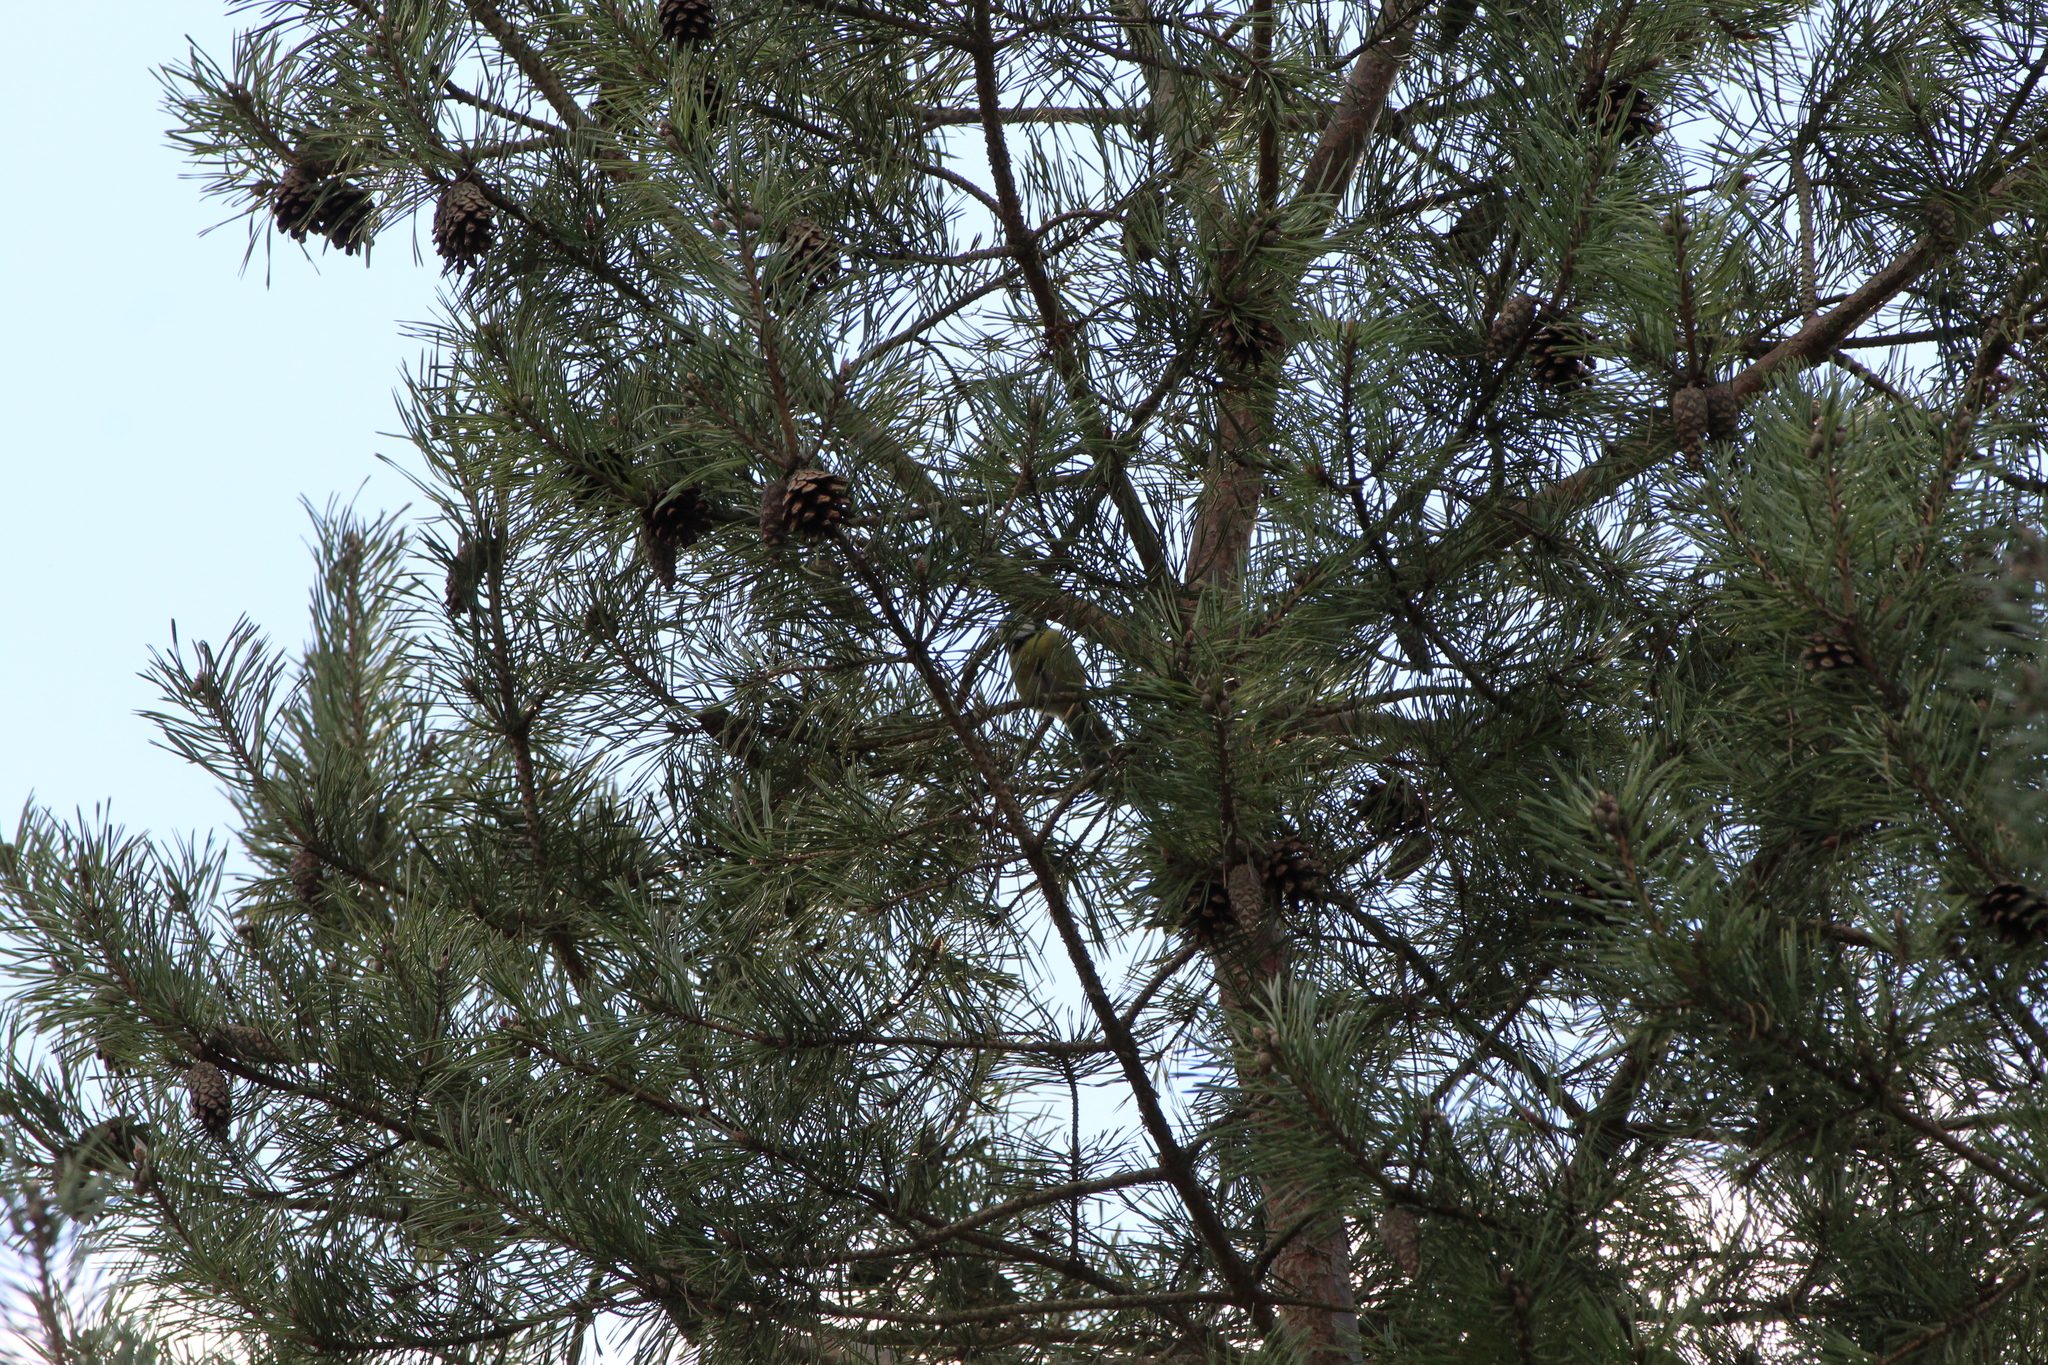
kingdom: Animalia
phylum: Chordata
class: Aves
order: Passeriformes
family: Paridae
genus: Cyanistes
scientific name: Cyanistes caeruleus
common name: Eurasian blue tit
